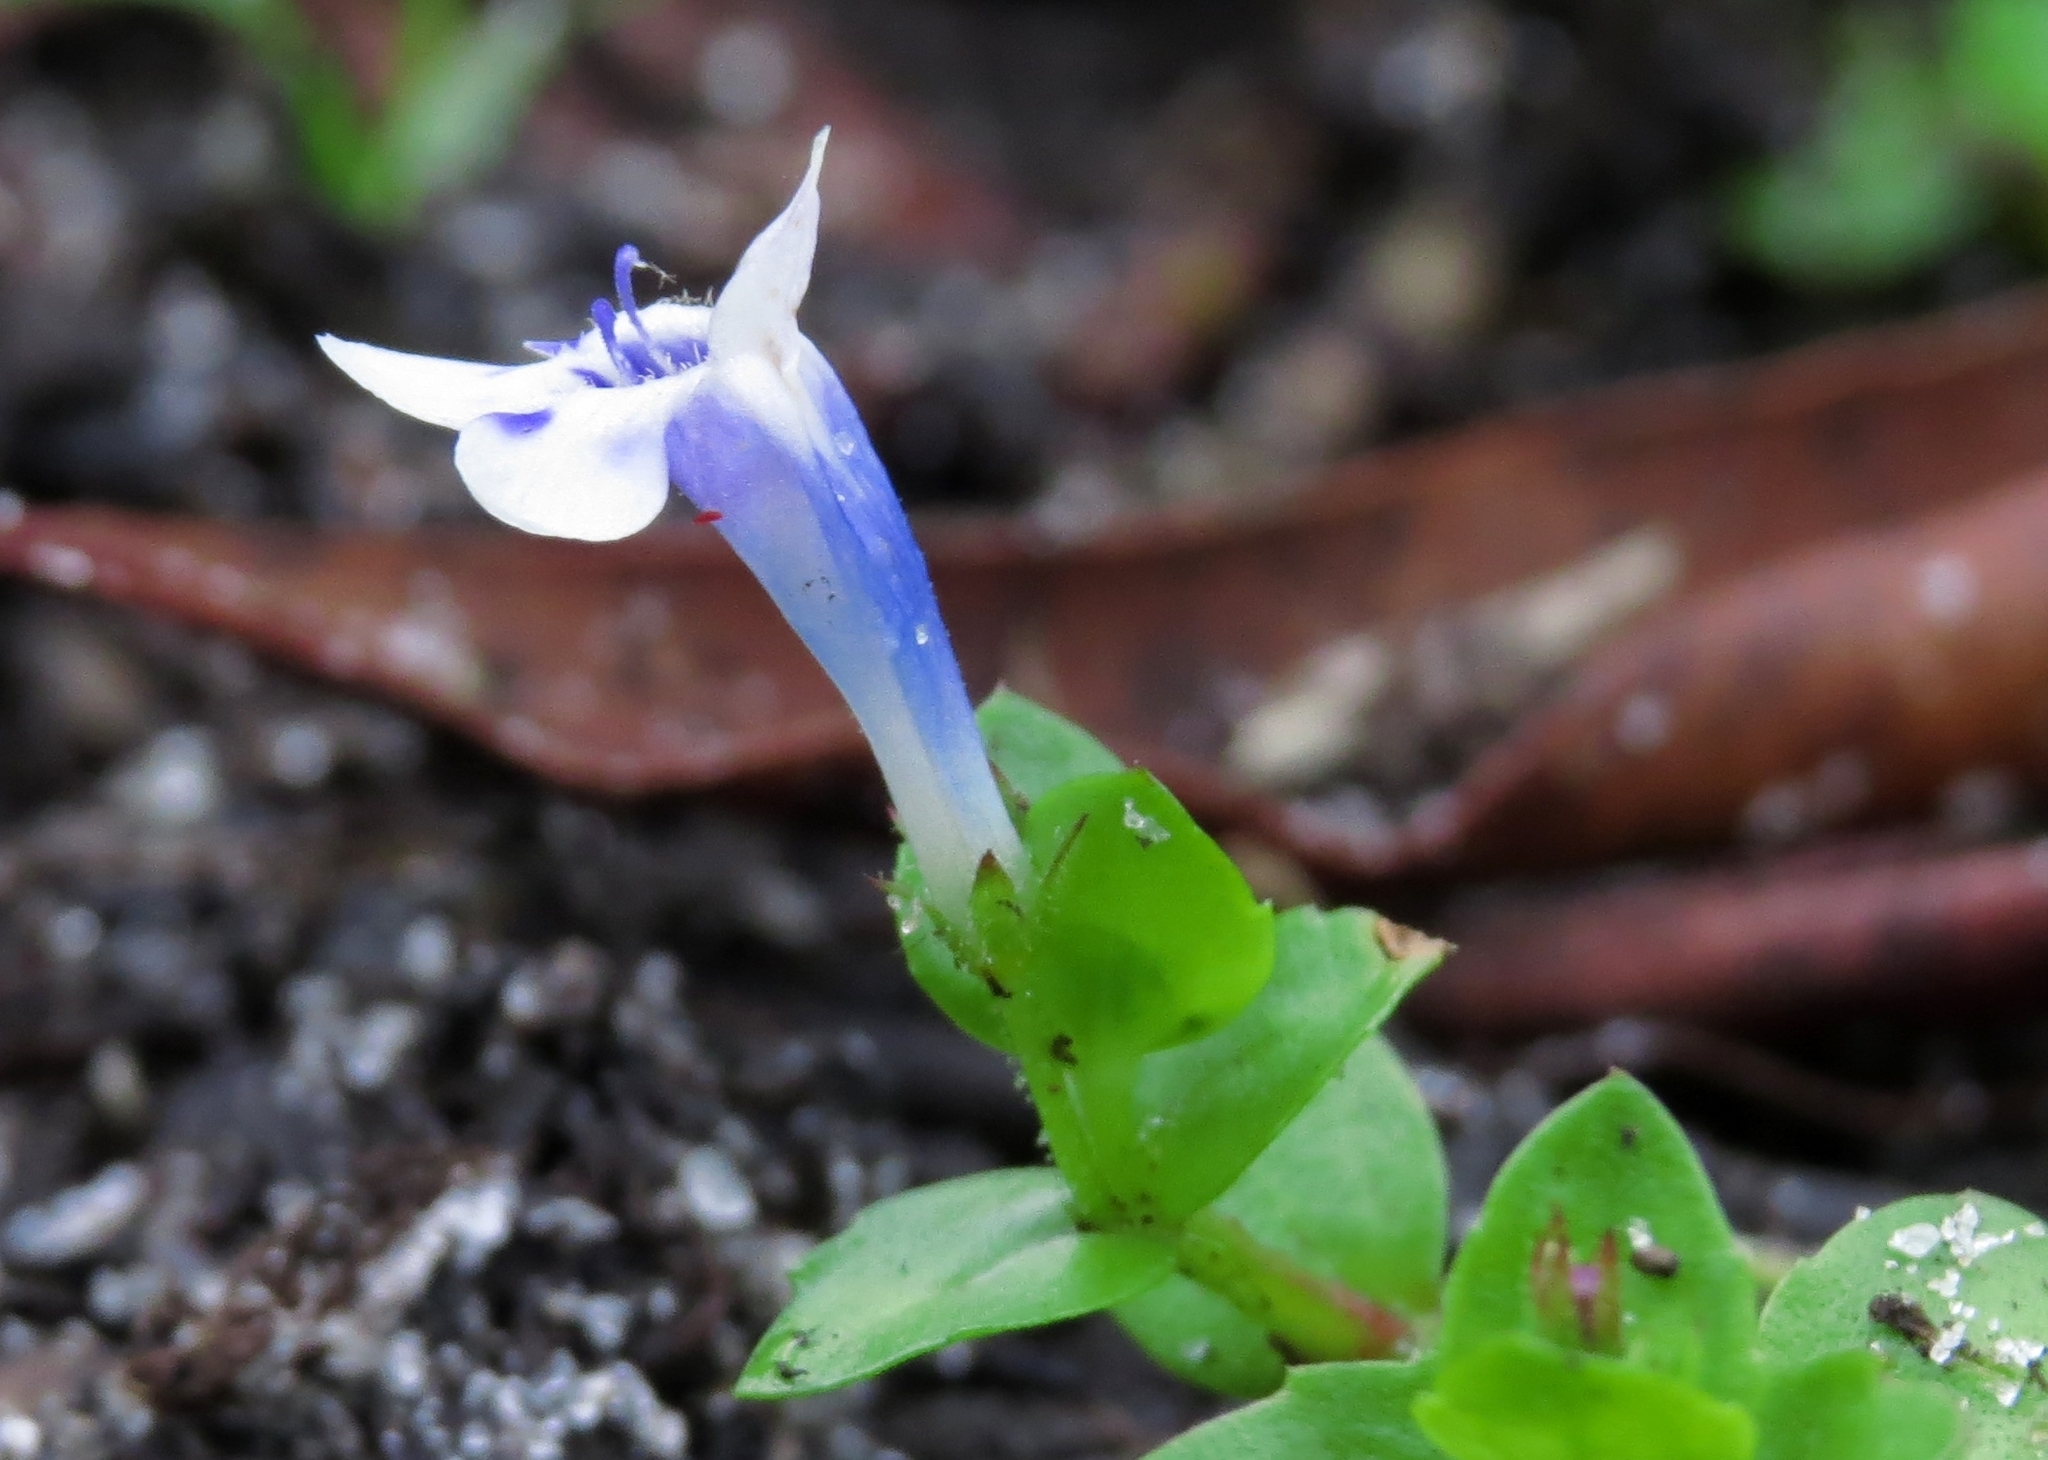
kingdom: Plantae
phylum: Tracheophyta
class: Magnoliopsida
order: Lamiales
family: Linderniaceae
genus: Lindernia
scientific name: Lindernia grandiflora
